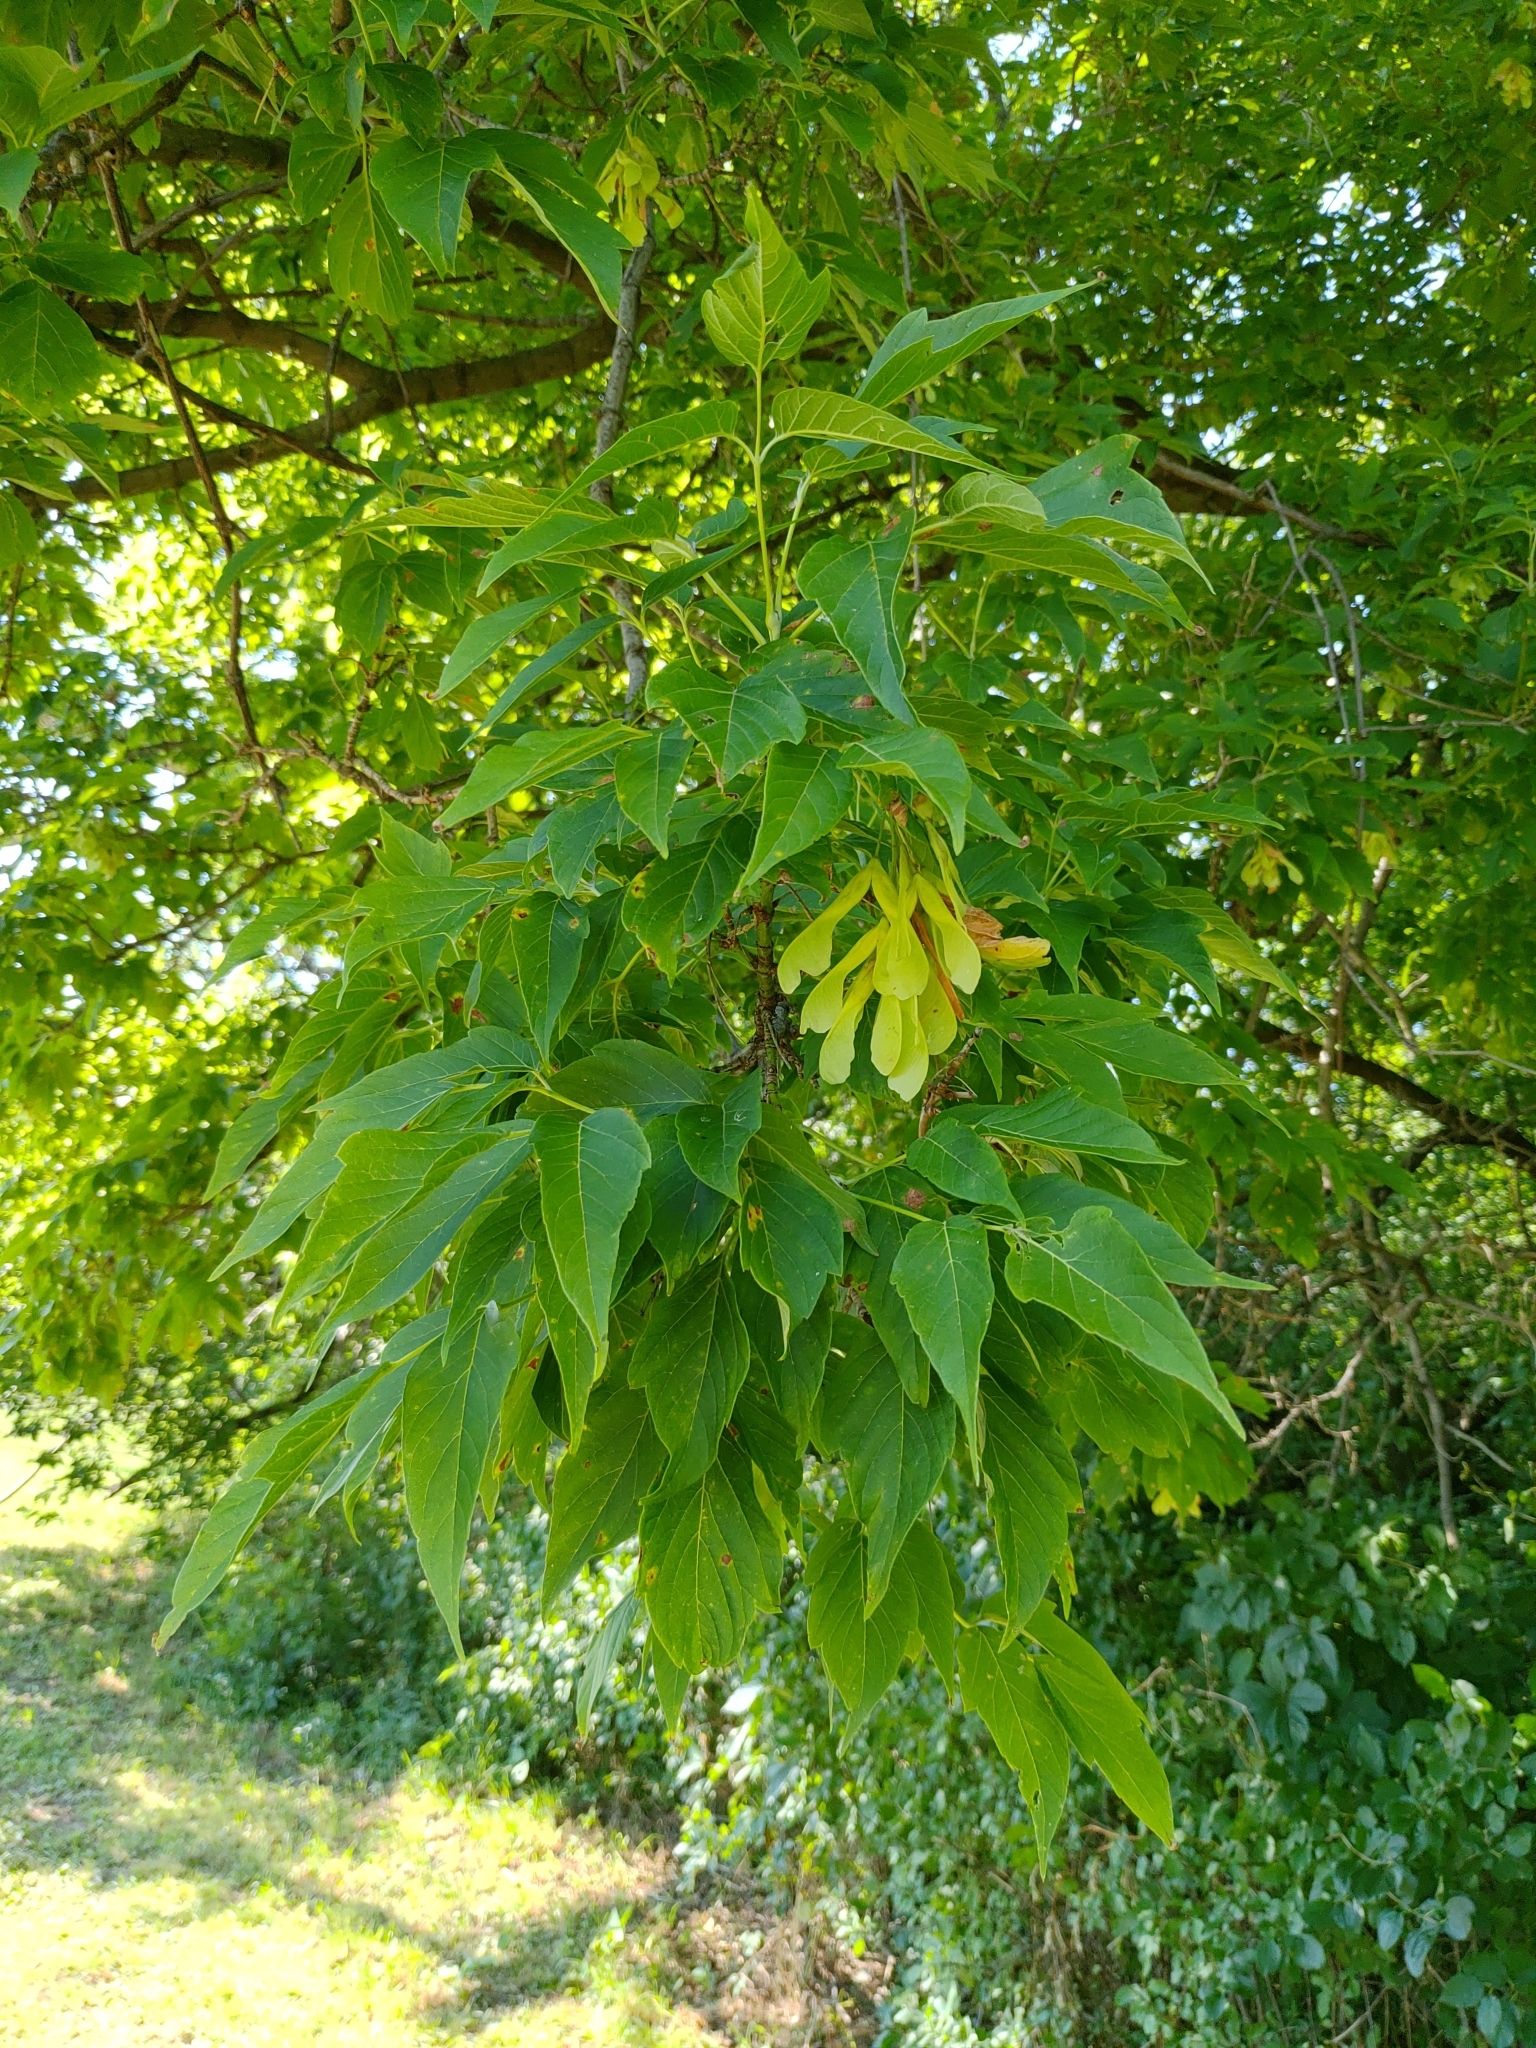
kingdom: Plantae
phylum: Tracheophyta
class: Magnoliopsida
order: Sapindales
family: Sapindaceae
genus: Acer
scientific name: Acer negundo
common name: Ashleaf maple
